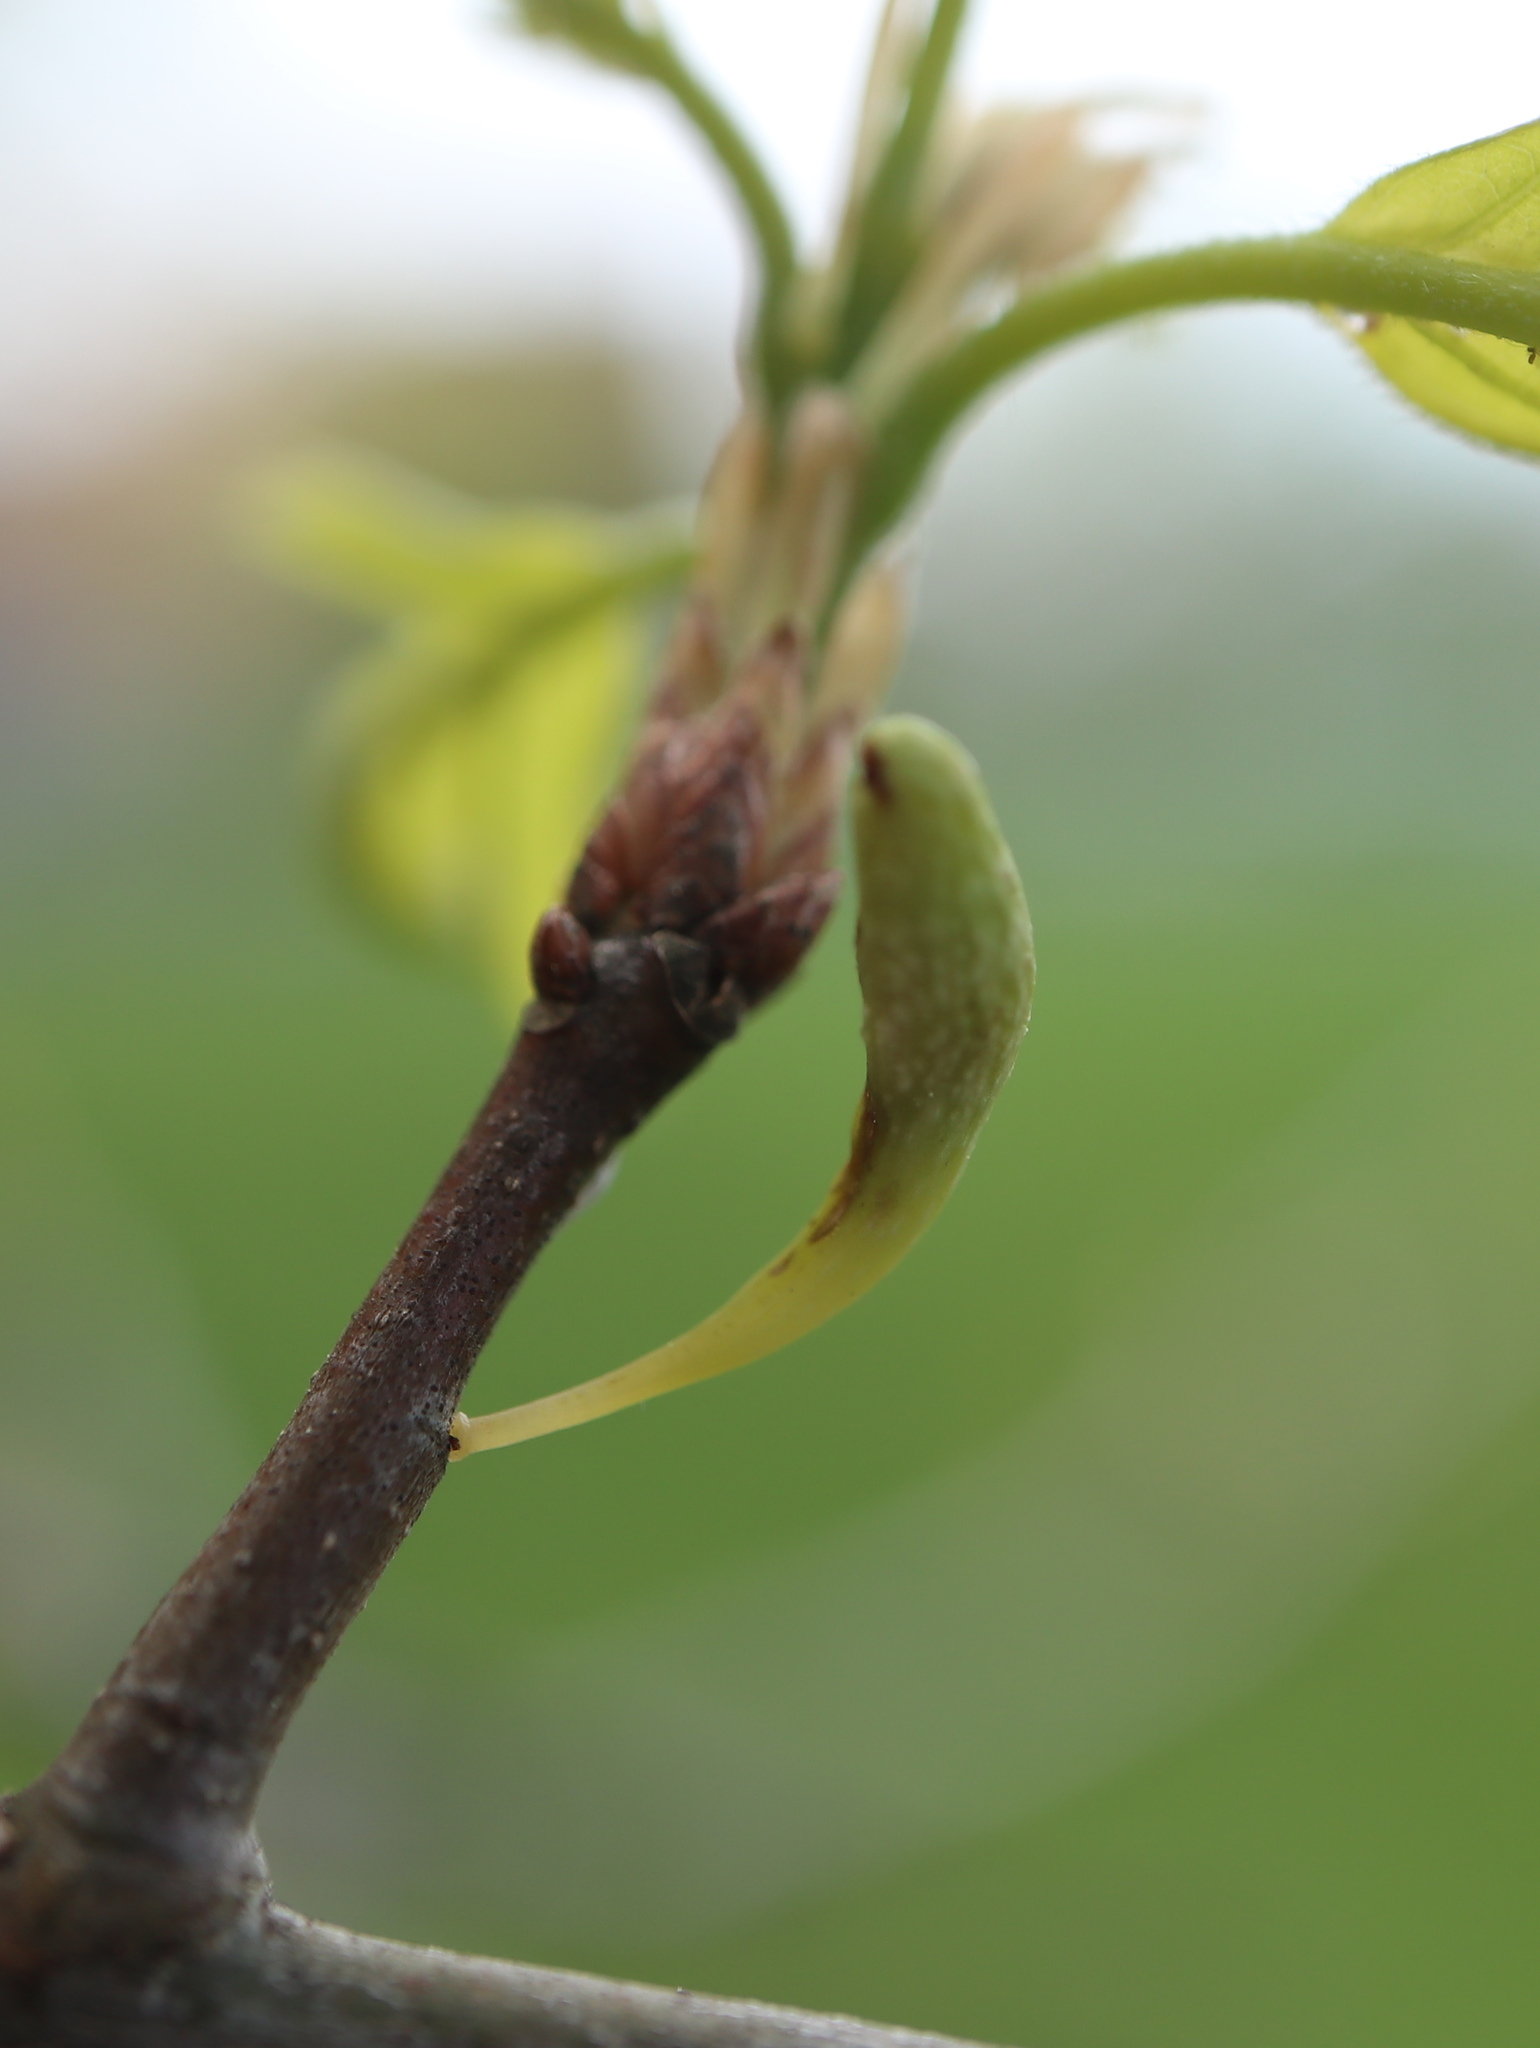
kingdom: Animalia
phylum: Arthropoda
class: Insecta
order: Hymenoptera
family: Cynipidae
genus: Callirhytis
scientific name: Callirhytis
